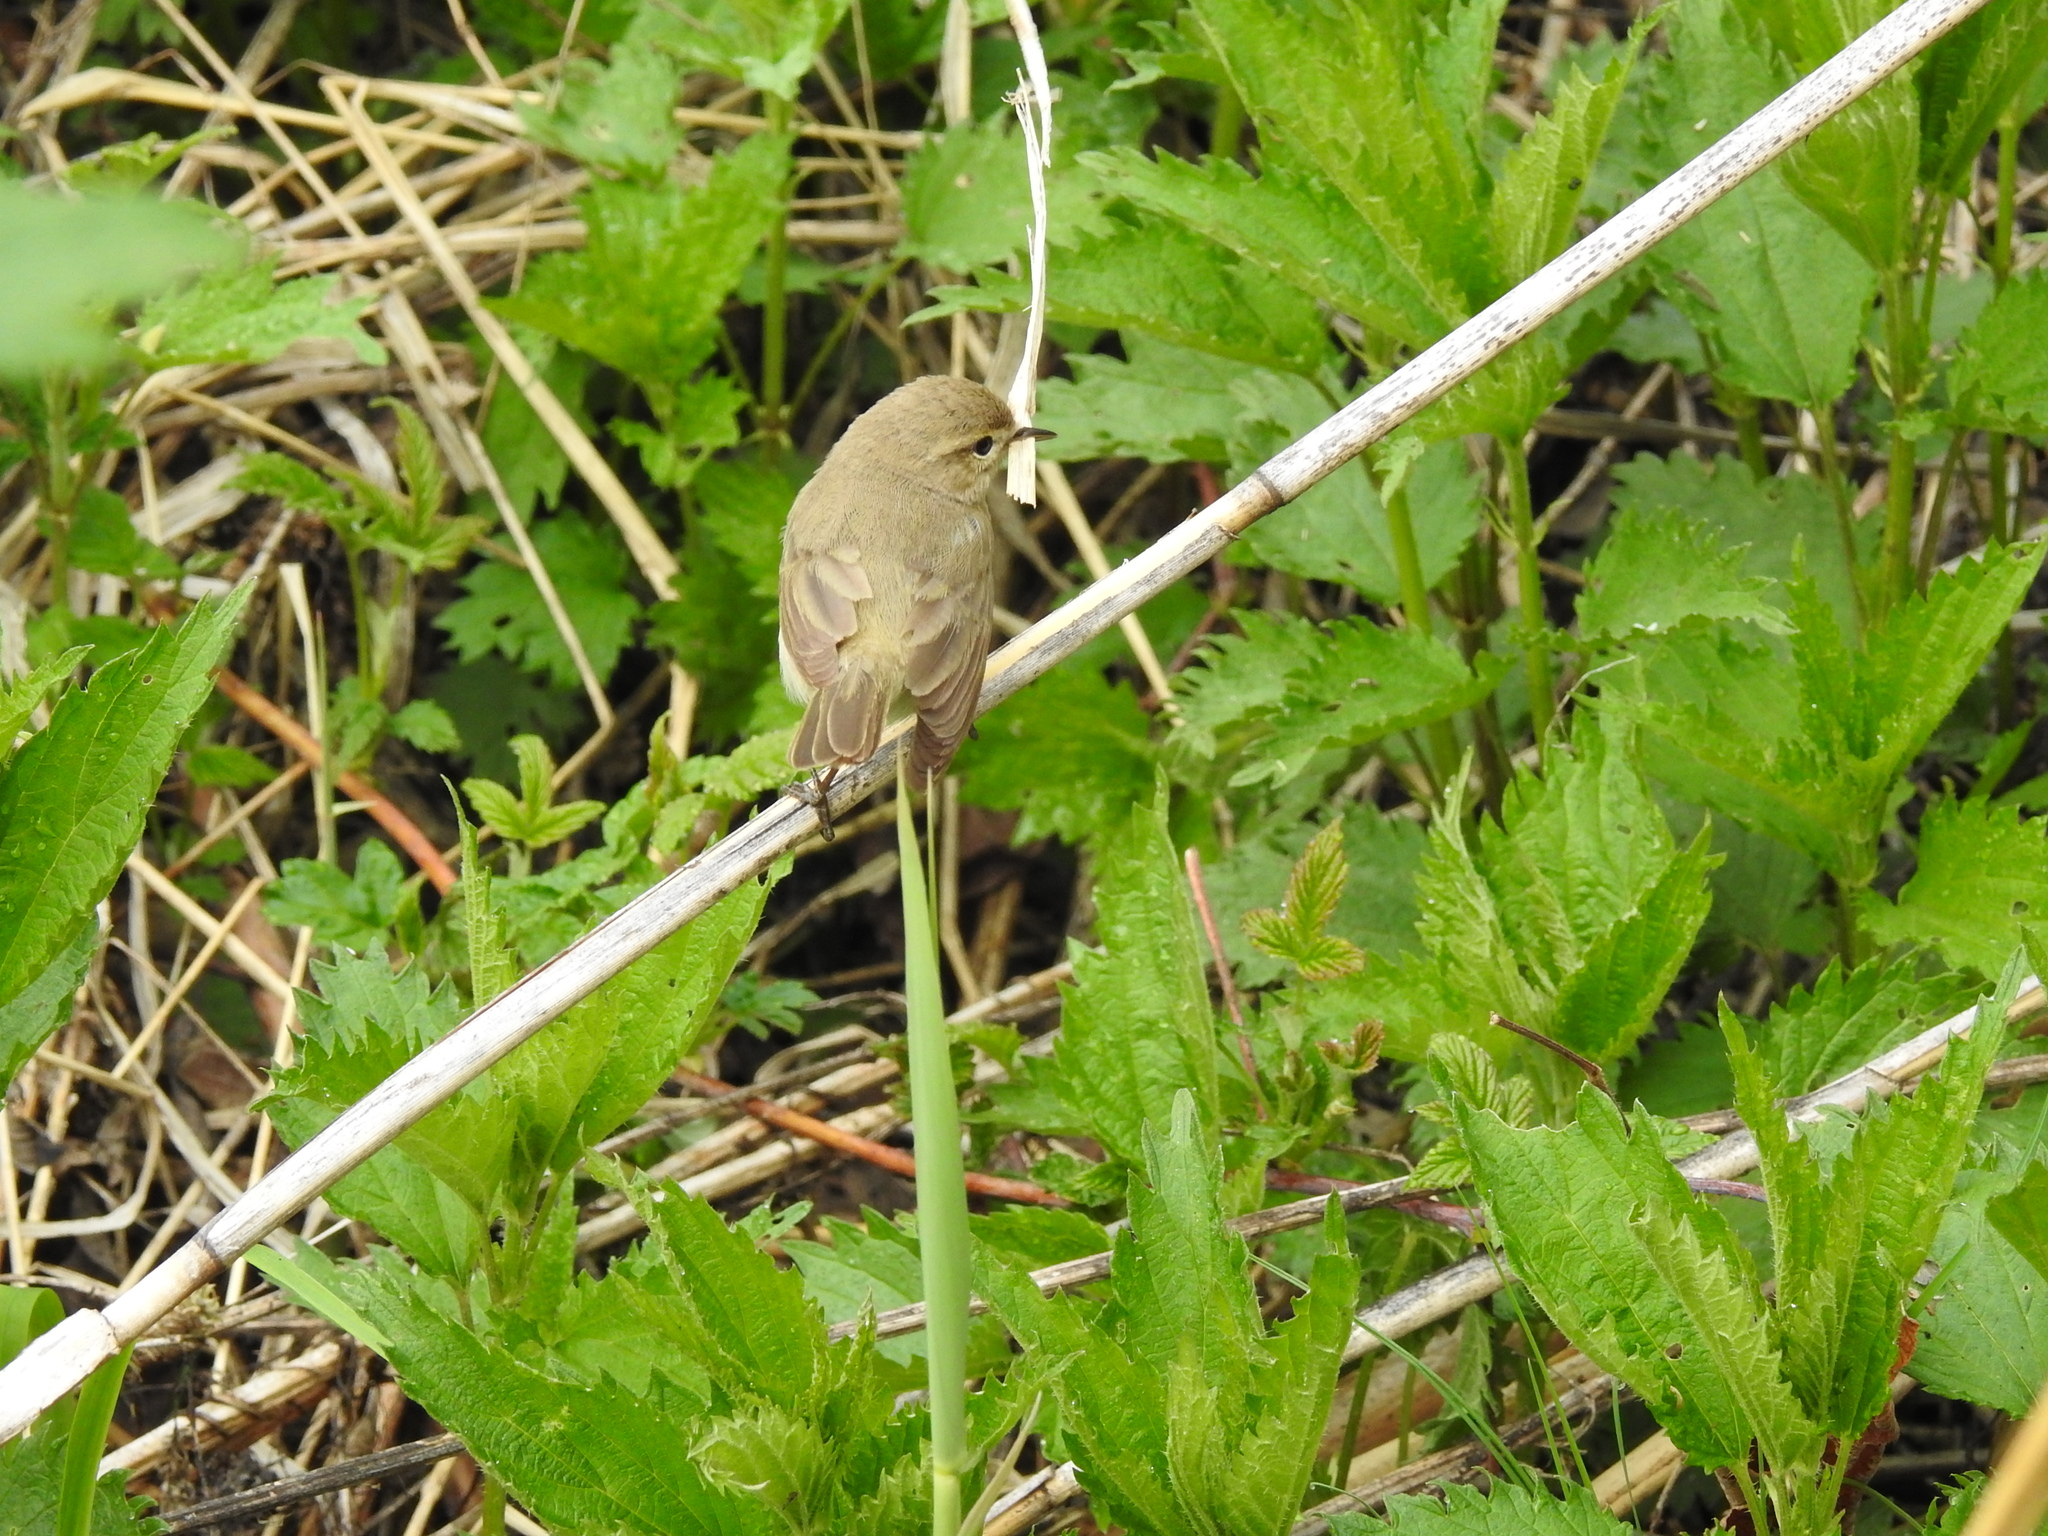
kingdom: Animalia
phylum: Chordata
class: Aves
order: Passeriformes
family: Phylloscopidae
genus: Phylloscopus
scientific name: Phylloscopus collybita
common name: Common chiffchaff
